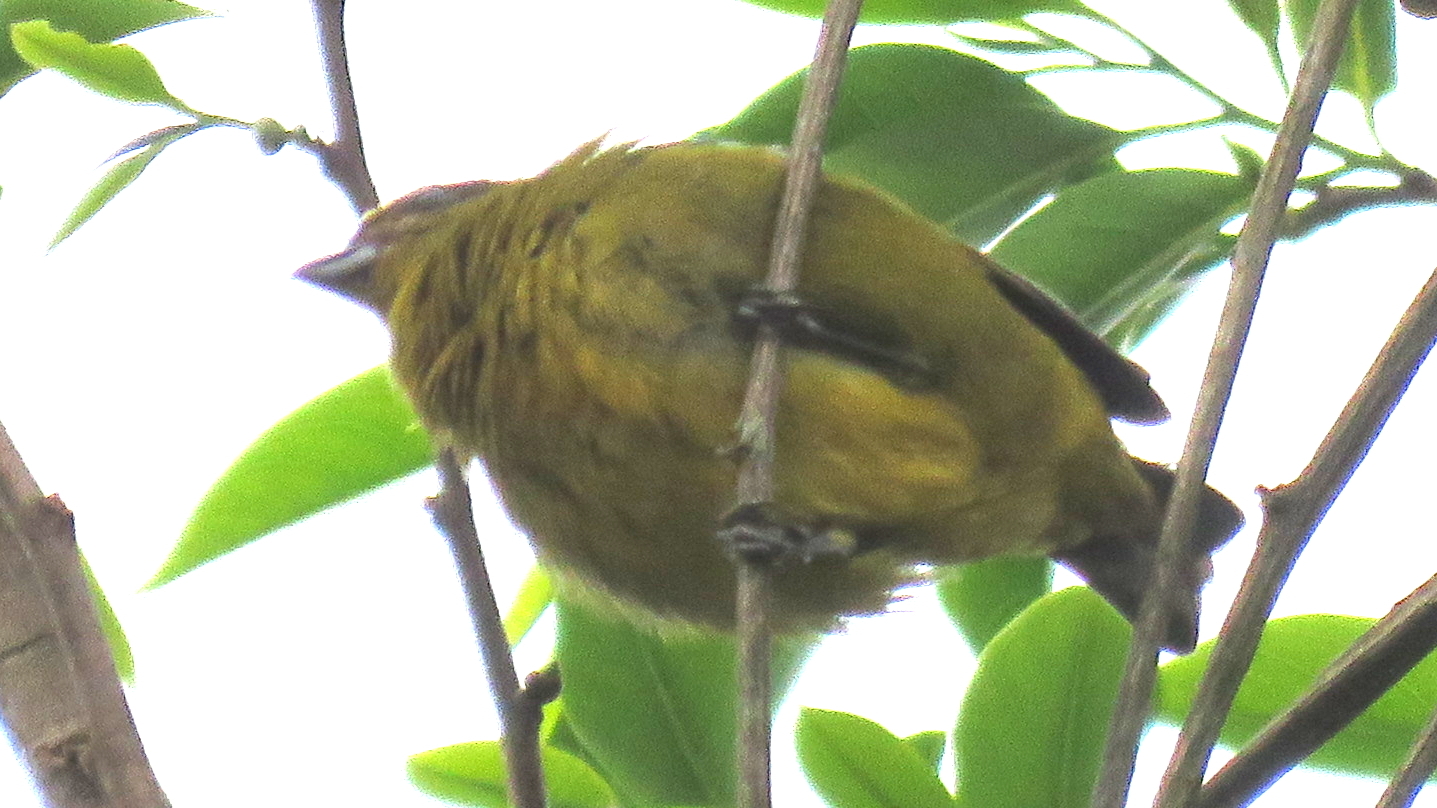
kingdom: Animalia
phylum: Chordata
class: Aves
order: Passeriformes
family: Fringillidae
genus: Euphonia
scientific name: Euphonia violacea
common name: Violaceous euphonia
